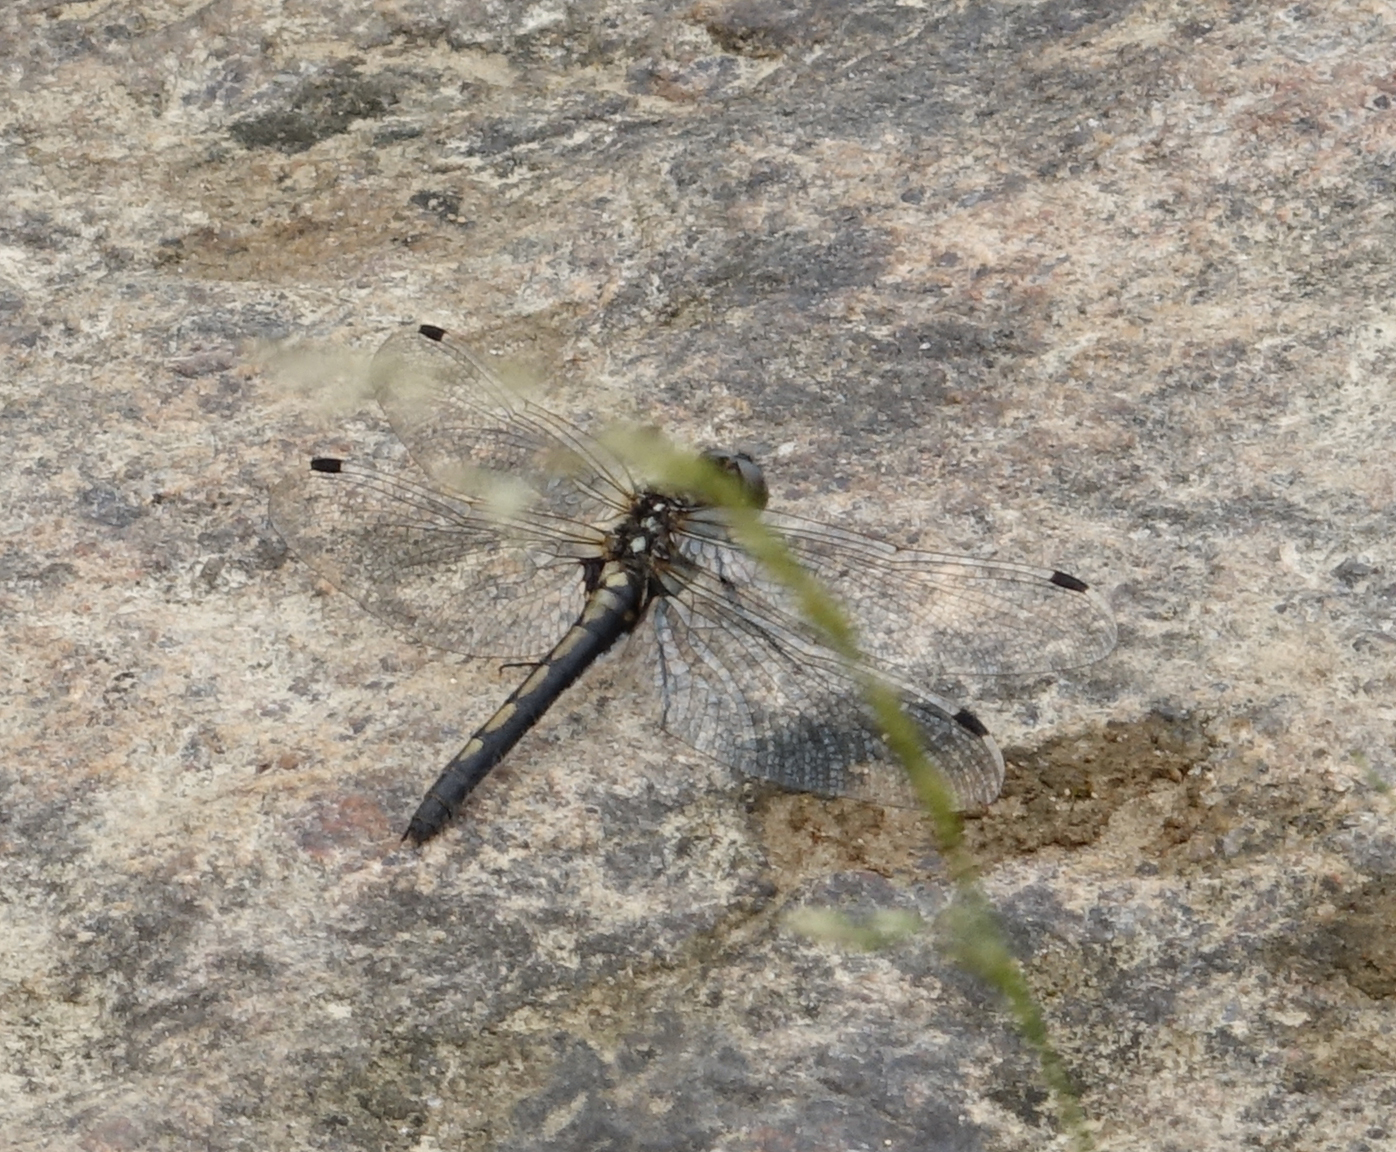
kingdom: Animalia
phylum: Arthropoda
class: Insecta
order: Odonata
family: Libellulidae
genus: Leucorrhinia
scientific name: Leucorrhinia intermedia
